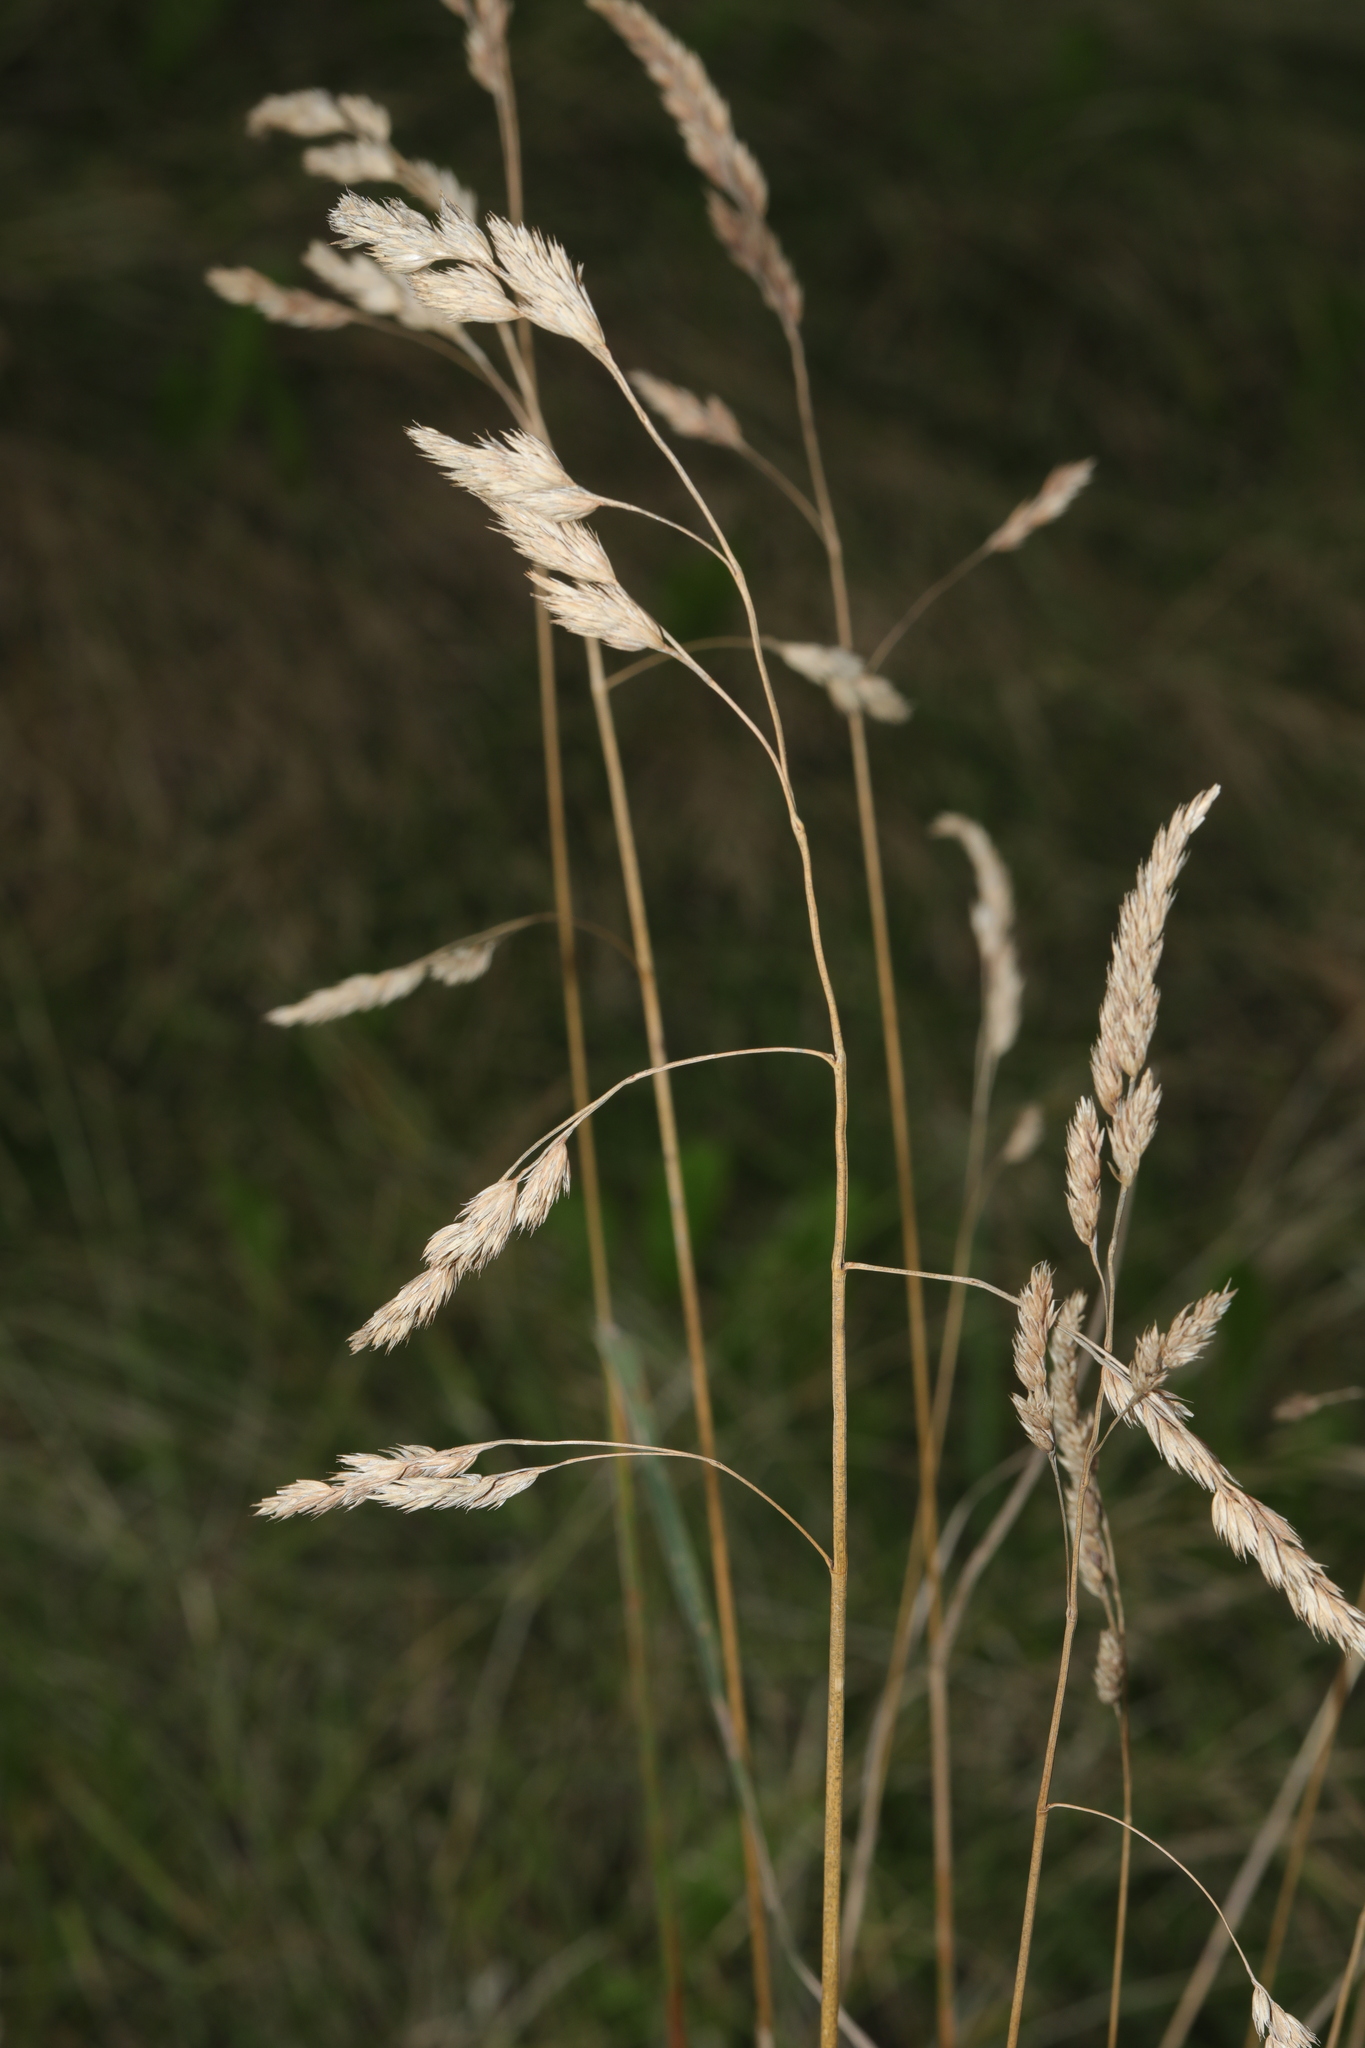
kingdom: Plantae
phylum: Tracheophyta
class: Liliopsida
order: Poales
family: Poaceae
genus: Dactylis
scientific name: Dactylis glomerata
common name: Orchardgrass
